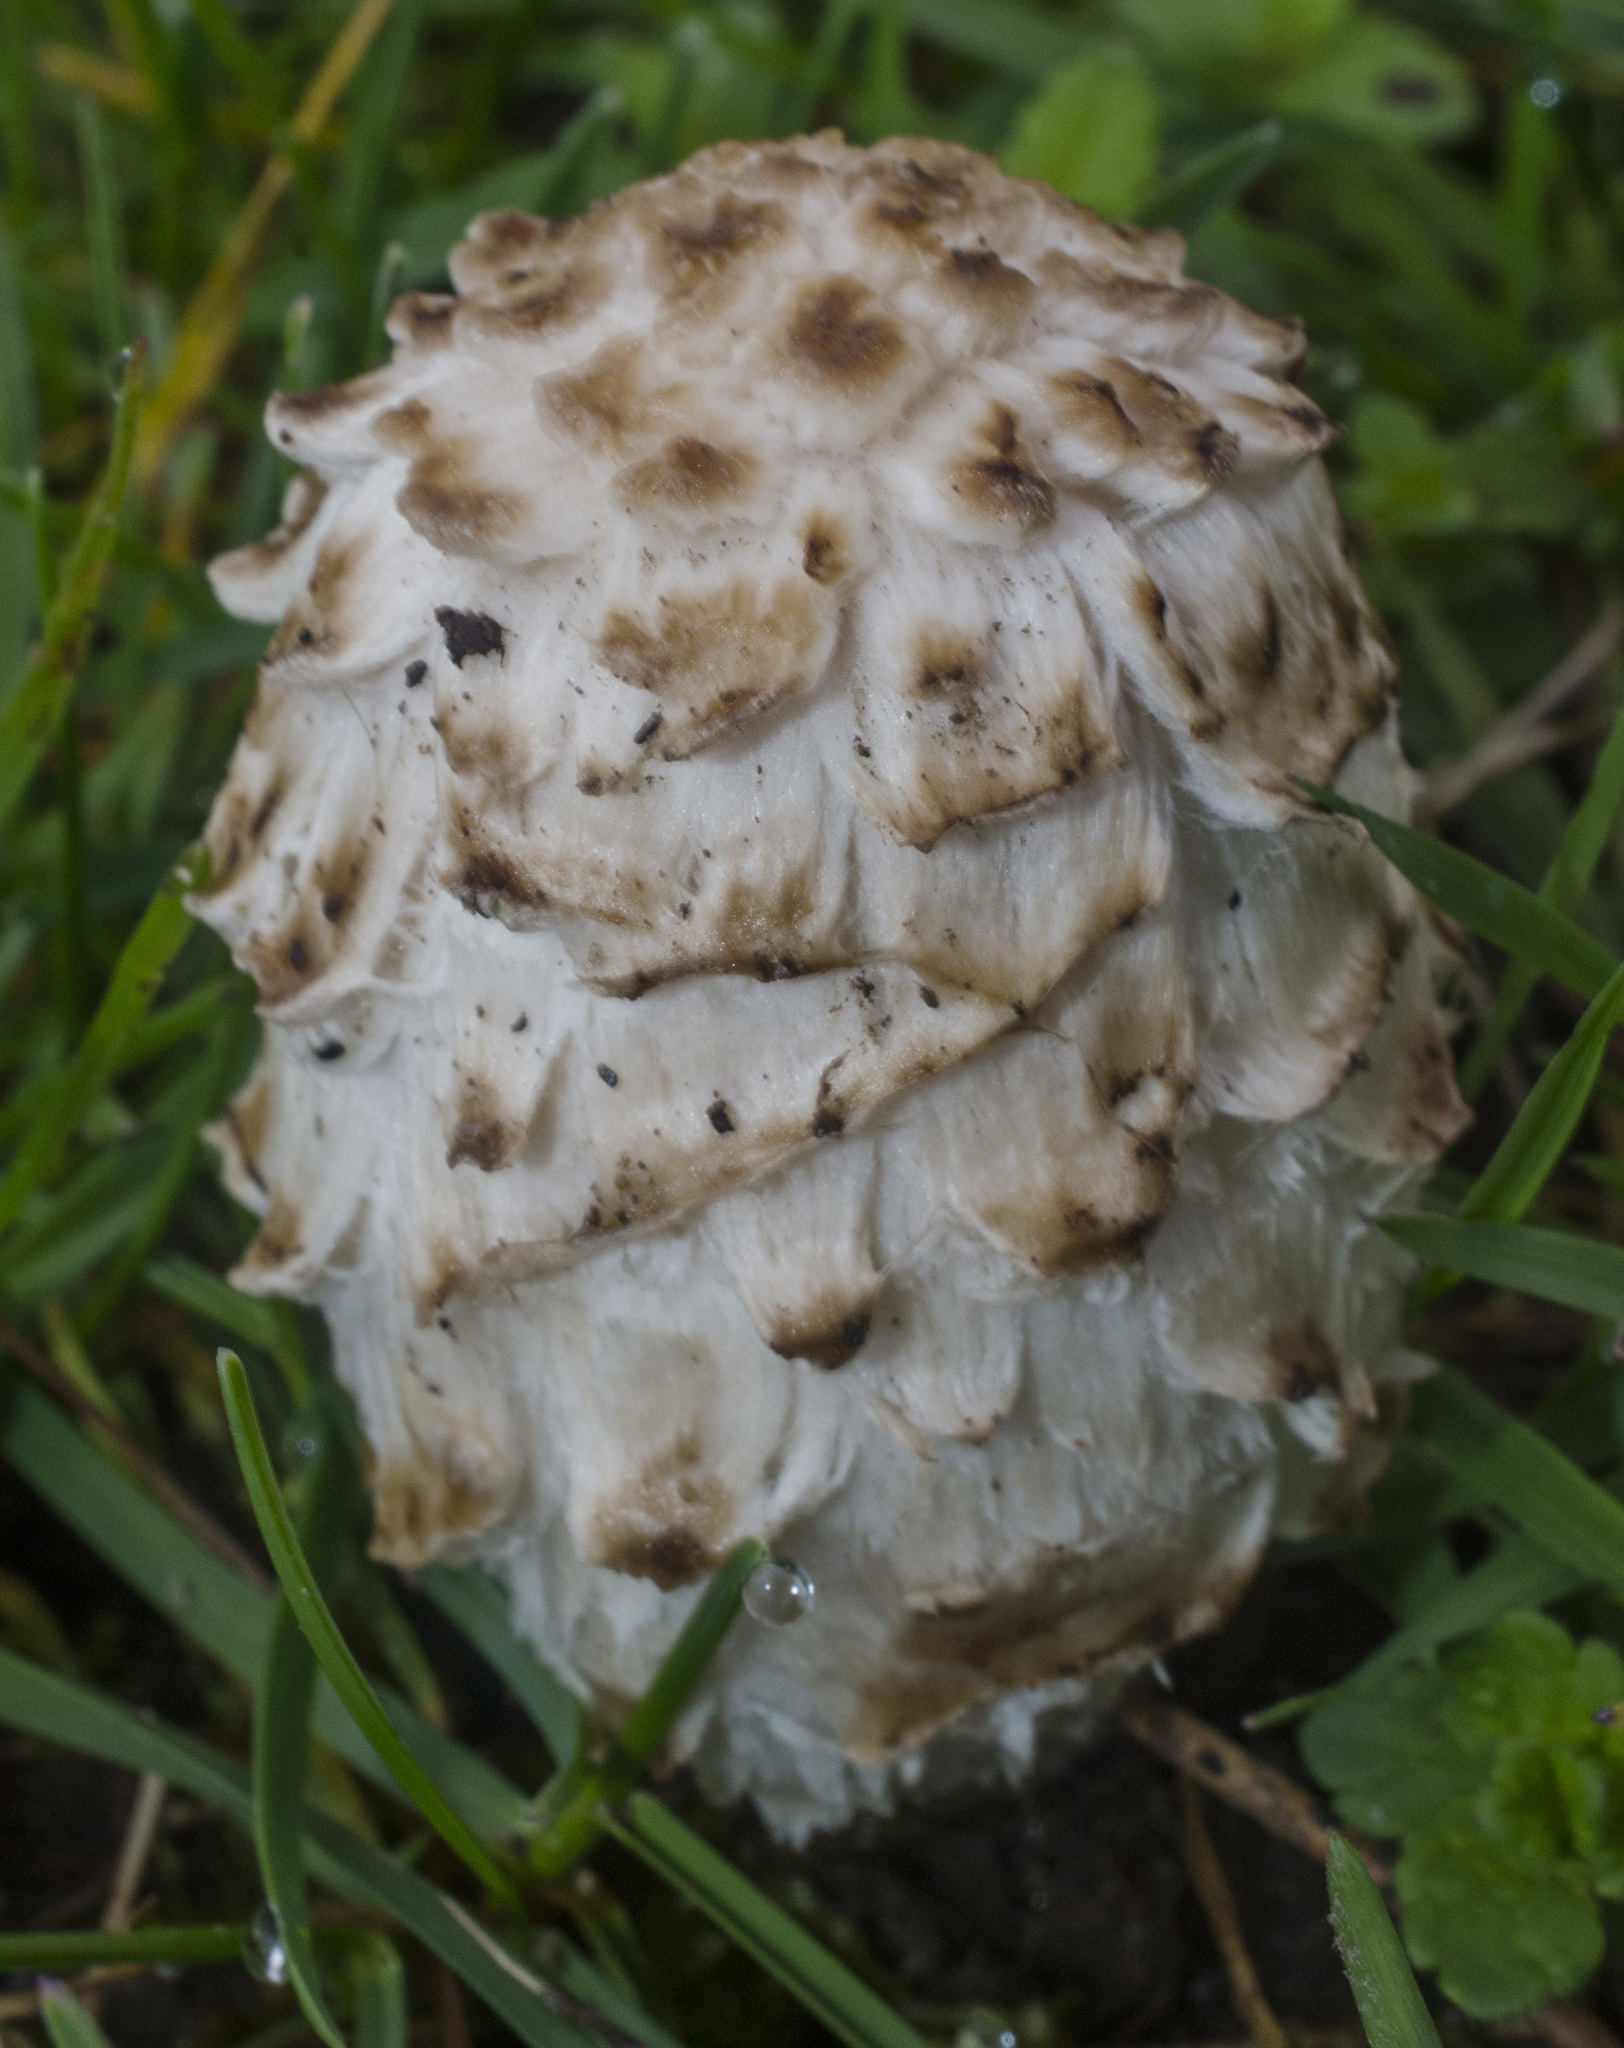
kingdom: Fungi
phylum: Basidiomycota
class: Agaricomycetes
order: Agaricales
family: Agaricaceae
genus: Coprinus
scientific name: Coprinus comatus
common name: Lawyer's wig
